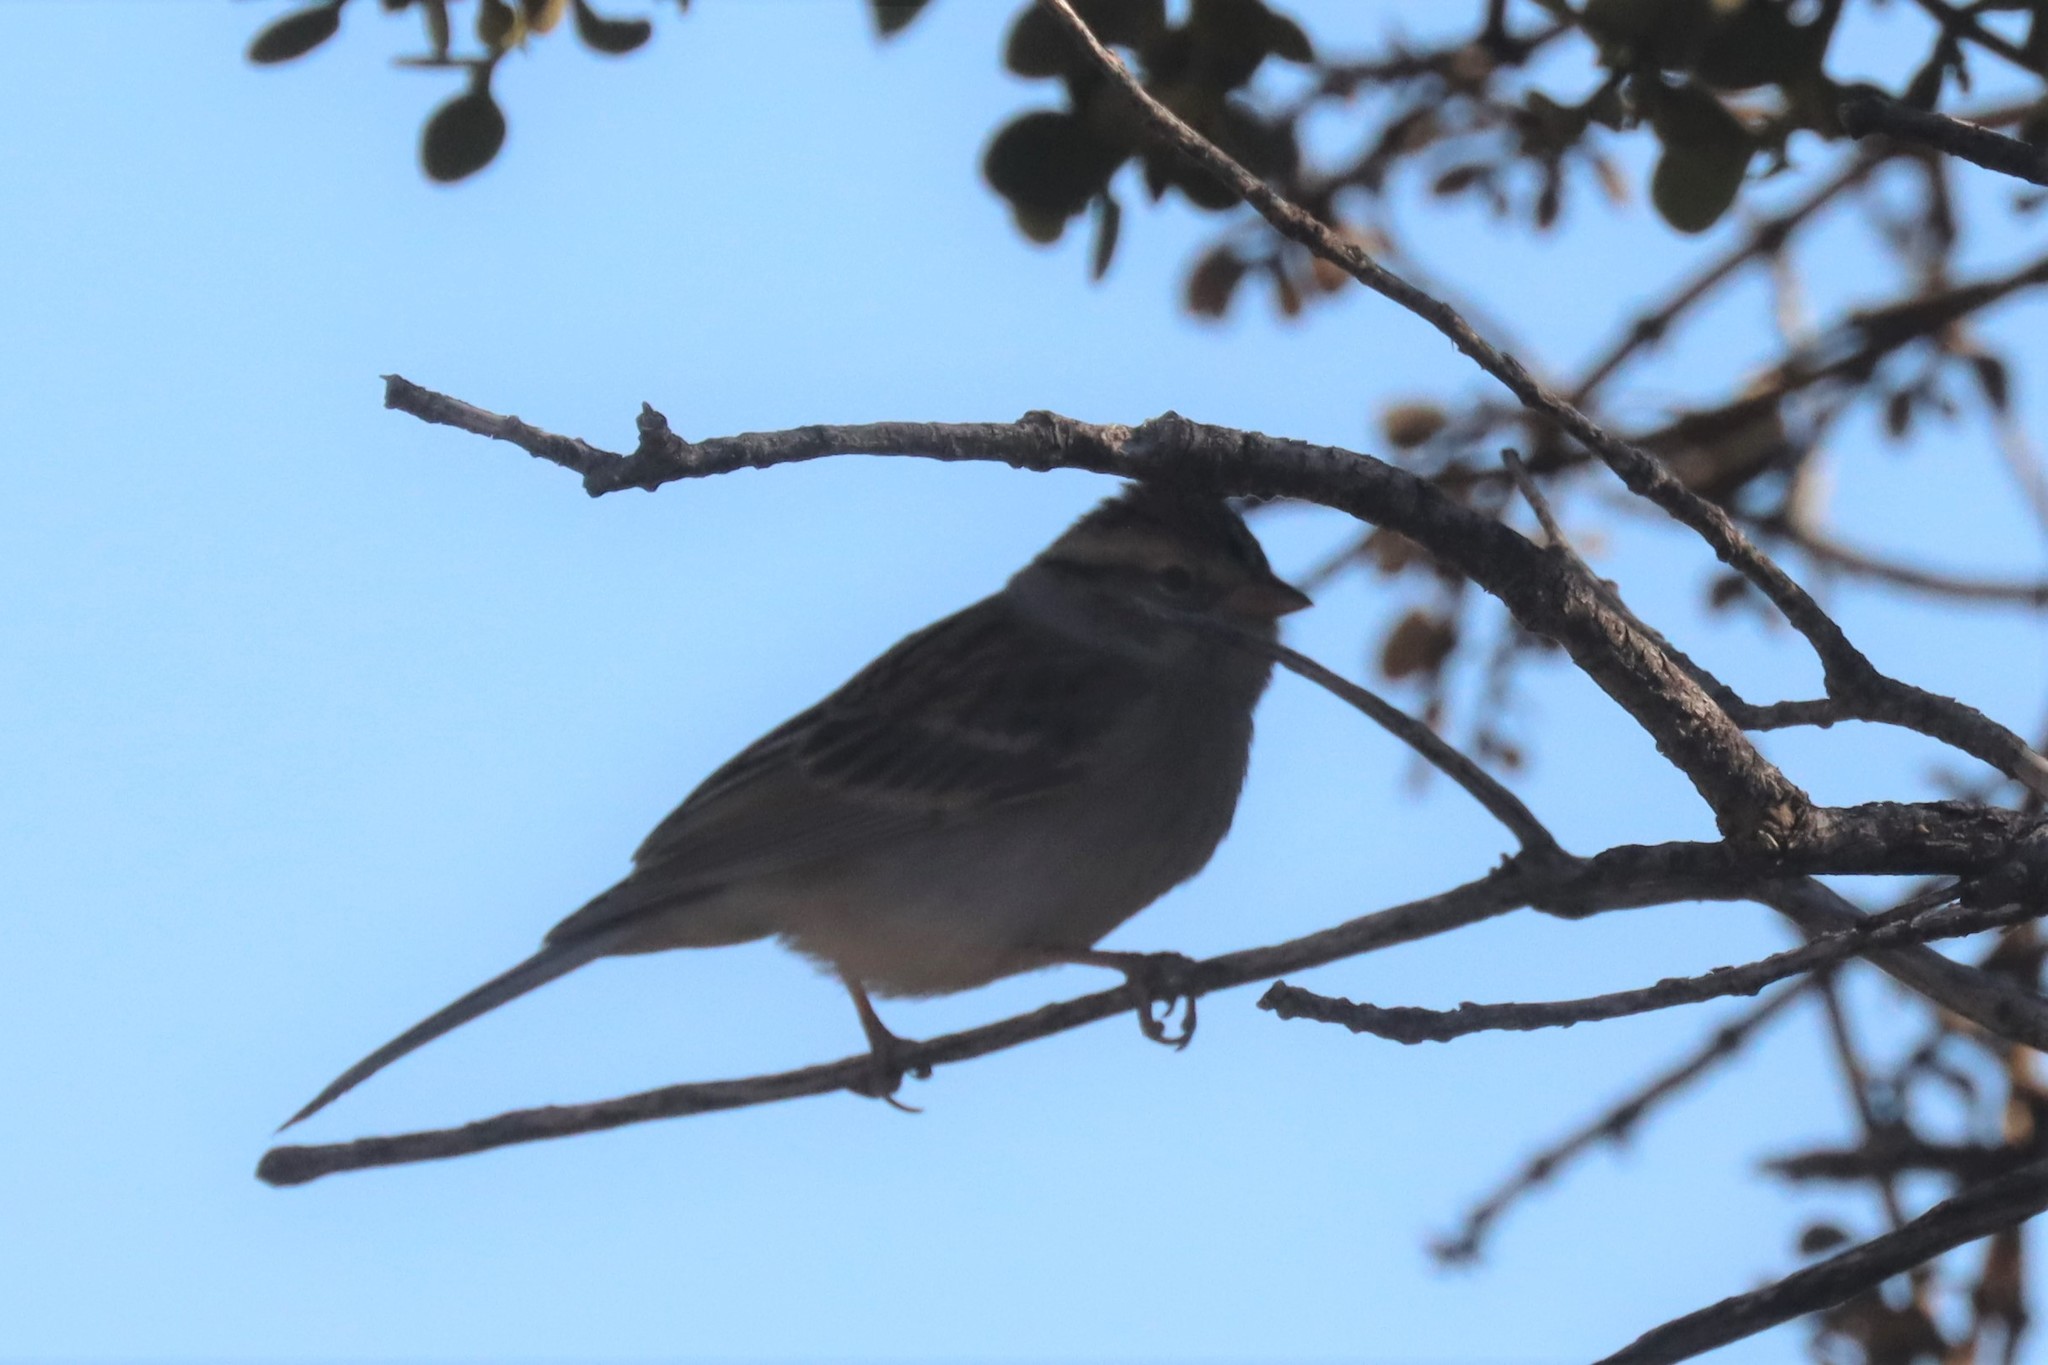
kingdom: Animalia
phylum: Chordata
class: Aves
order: Passeriformes
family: Passerellidae
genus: Spizella
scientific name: Spizella passerina
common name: Chipping sparrow
